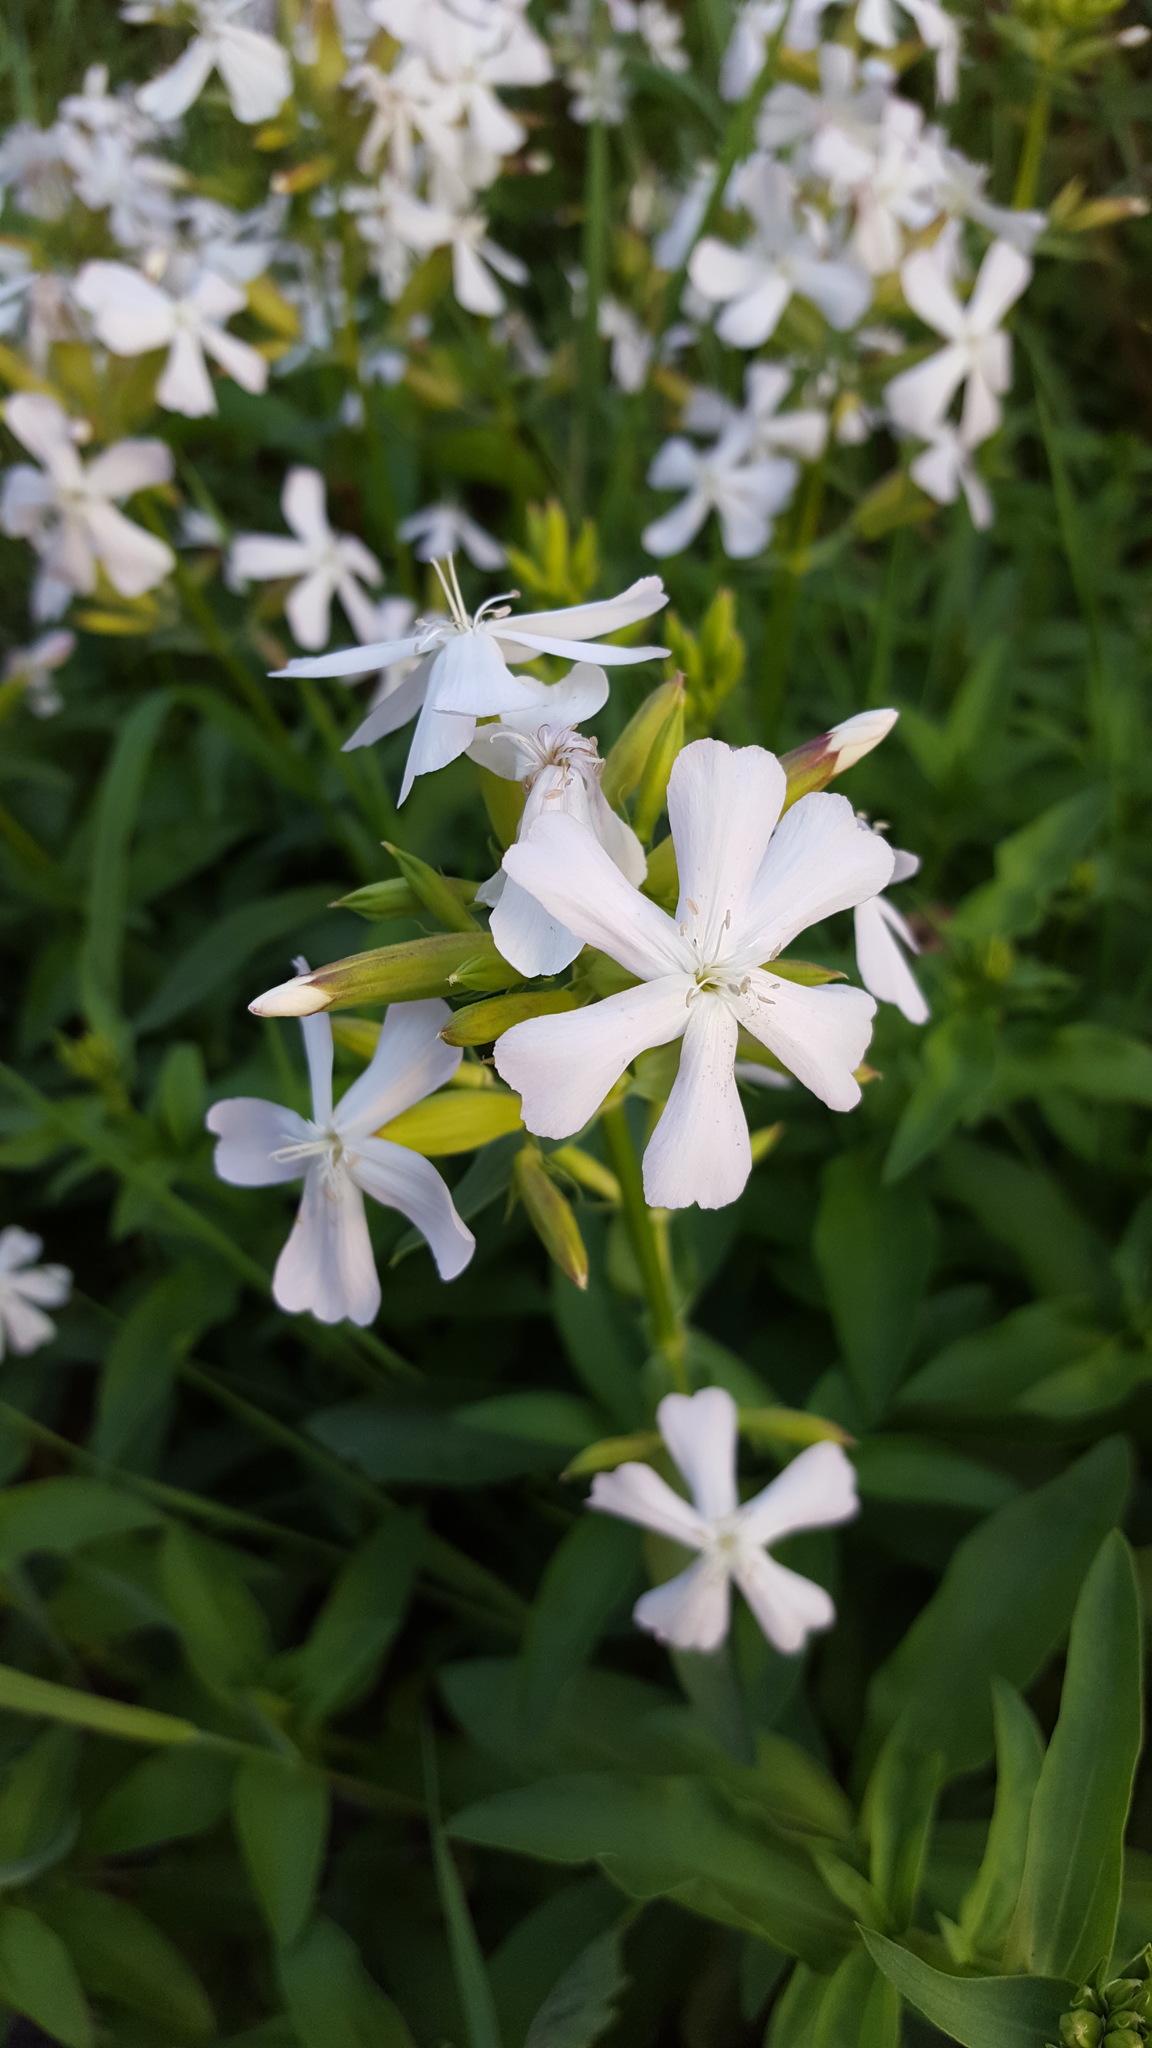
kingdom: Plantae
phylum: Tracheophyta
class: Magnoliopsida
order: Caryophyllales
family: Caryophyllaceae
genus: Saponaria
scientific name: Saponaria officinalis
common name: Soapwort
